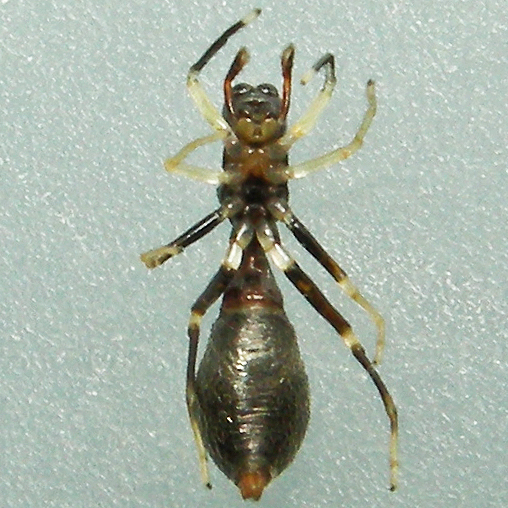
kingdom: Animalia
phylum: Arthropoda
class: Arachnida
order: Araneae
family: Salticidae
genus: Synemosyna
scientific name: Synemosyna formica
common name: Slender ant-mimic jumping spider
